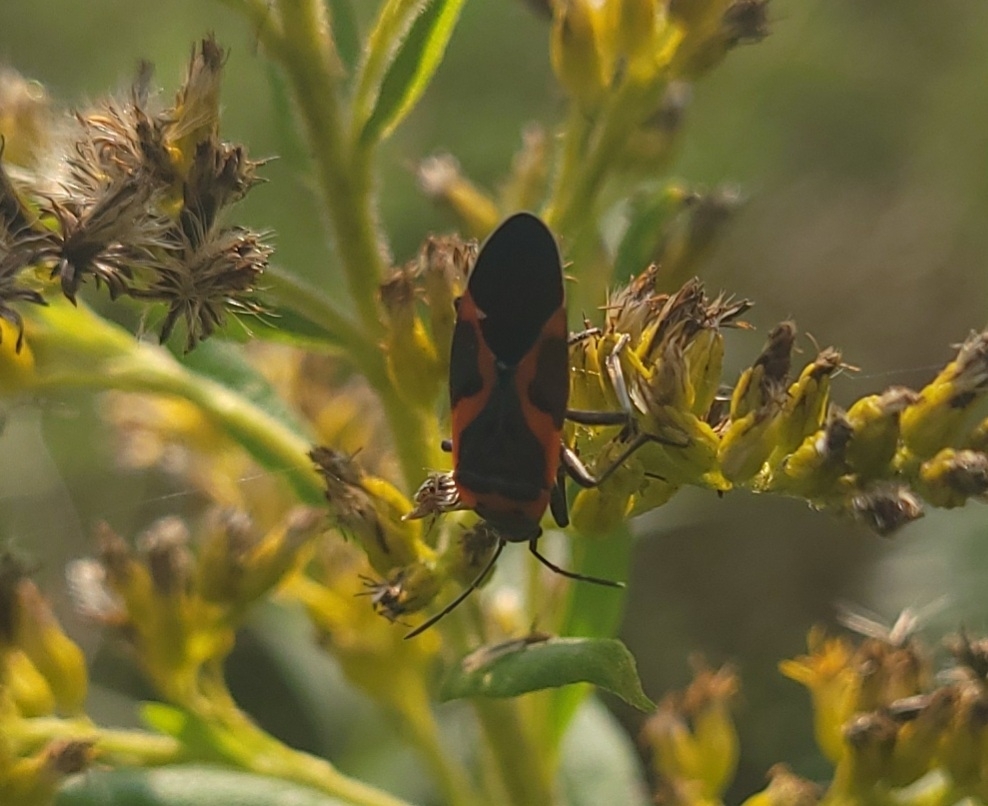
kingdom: Animalia
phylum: Arthropoda
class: Insecta
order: Hemiptera
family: Lygaeidae
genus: Lygaeus
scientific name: Lygaeus kalmii
